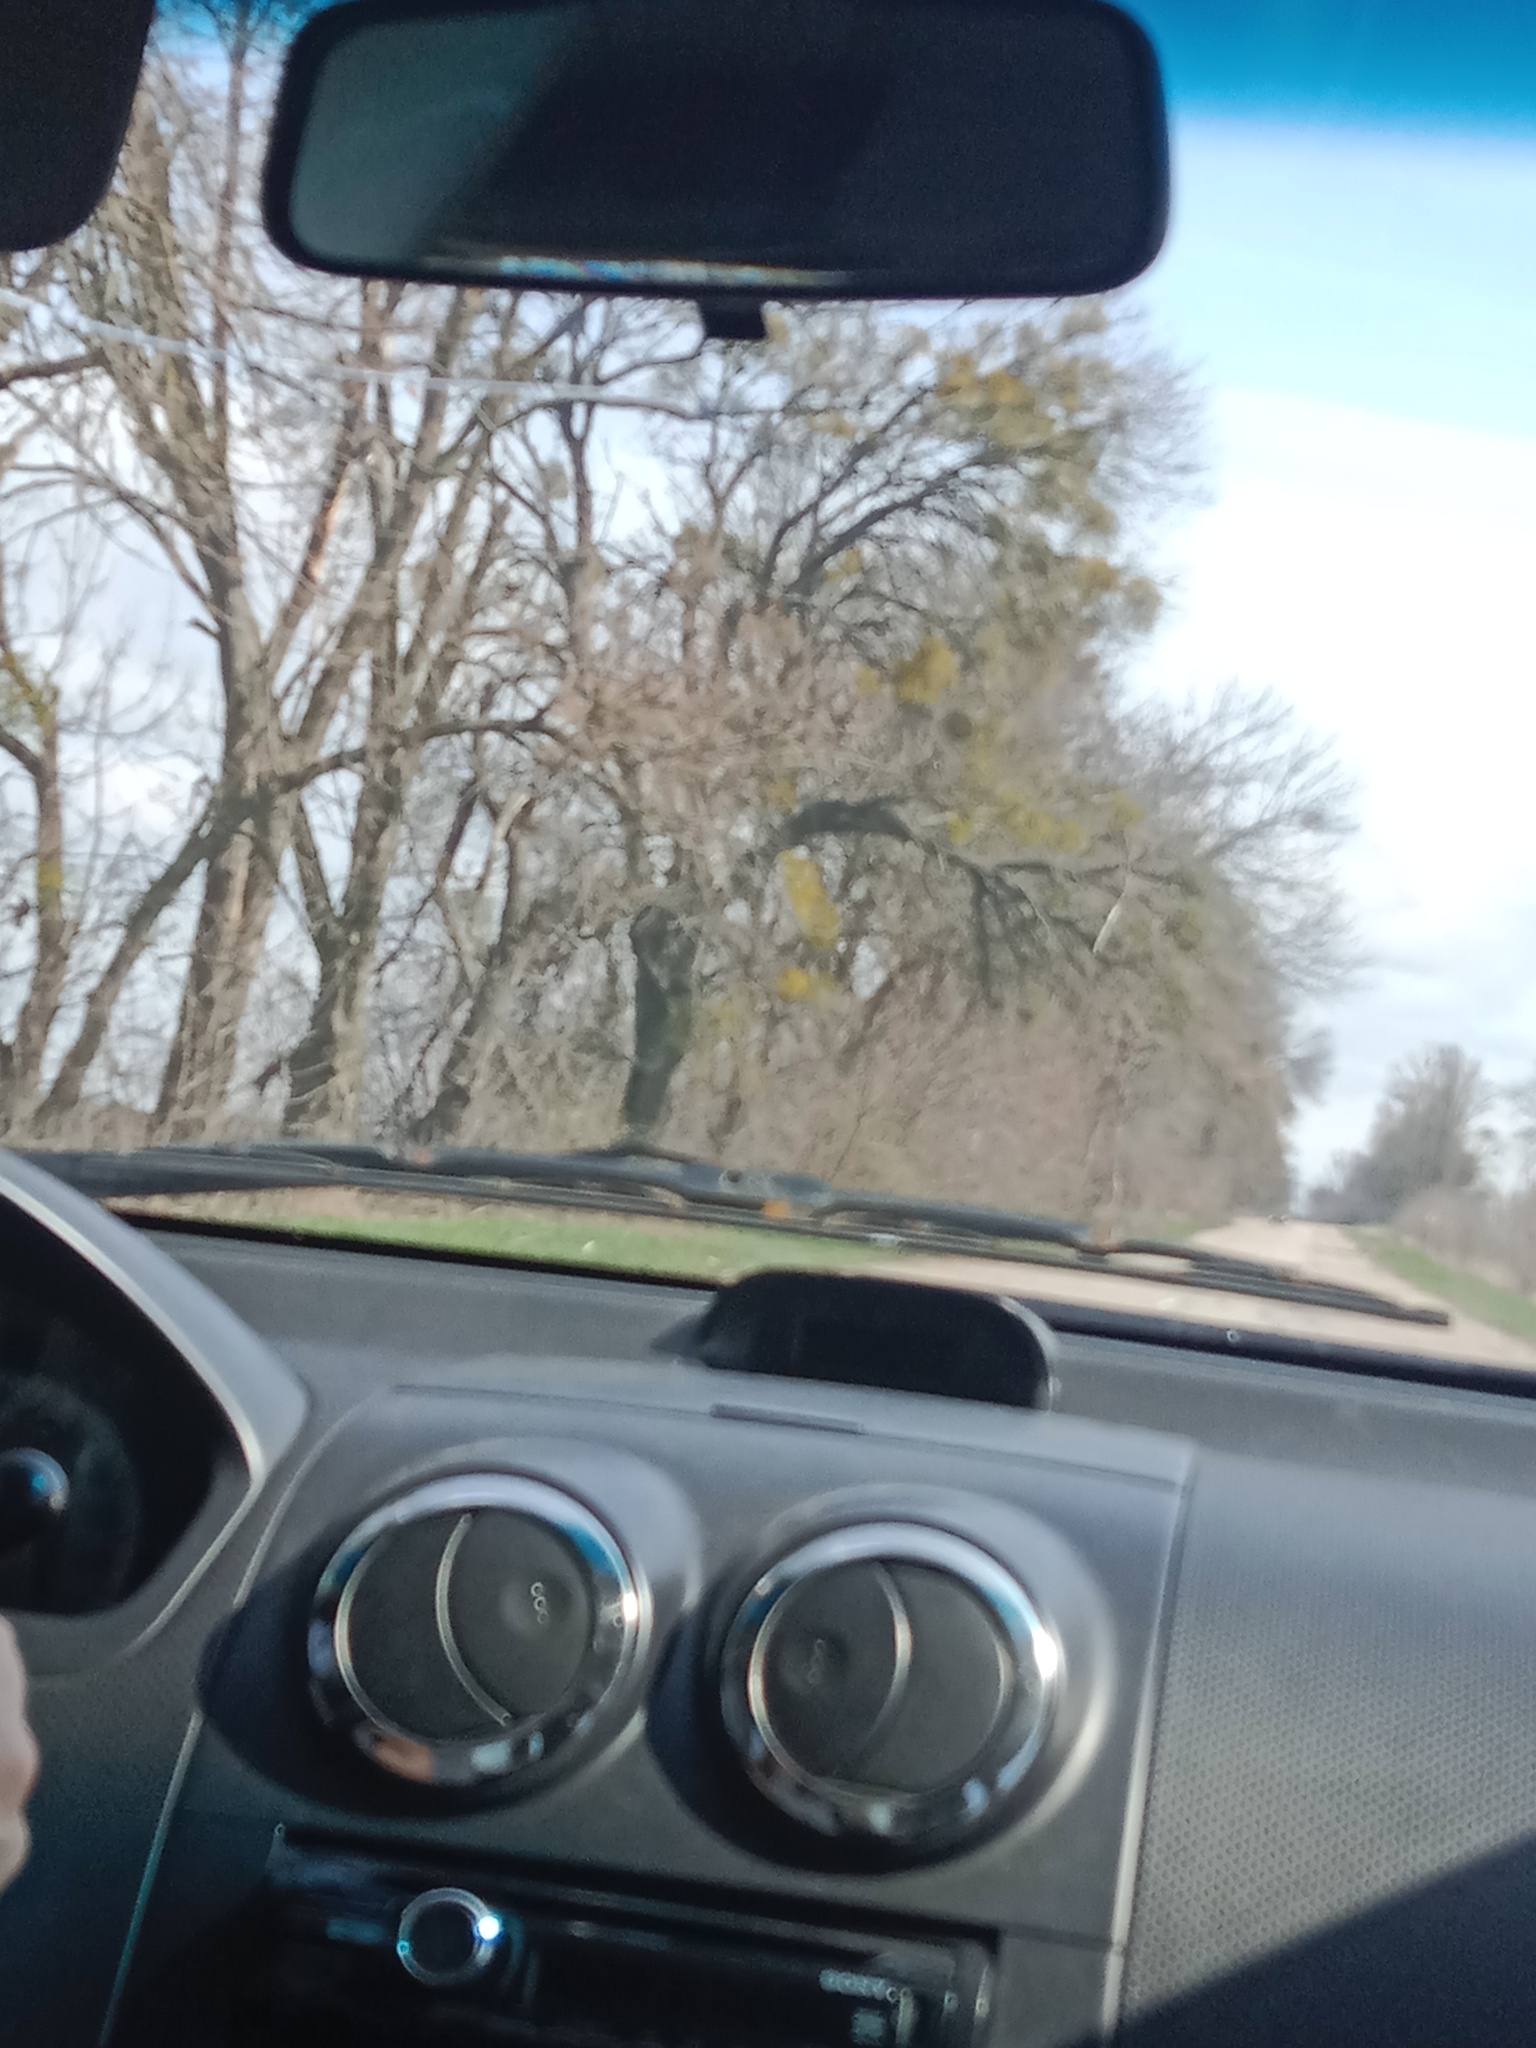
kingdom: Plantae
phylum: Tracheophyta
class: Magnoliopsida
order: Santalales
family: Viscaceae
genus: Viscum
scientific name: Viscum album
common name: Mistletoe
